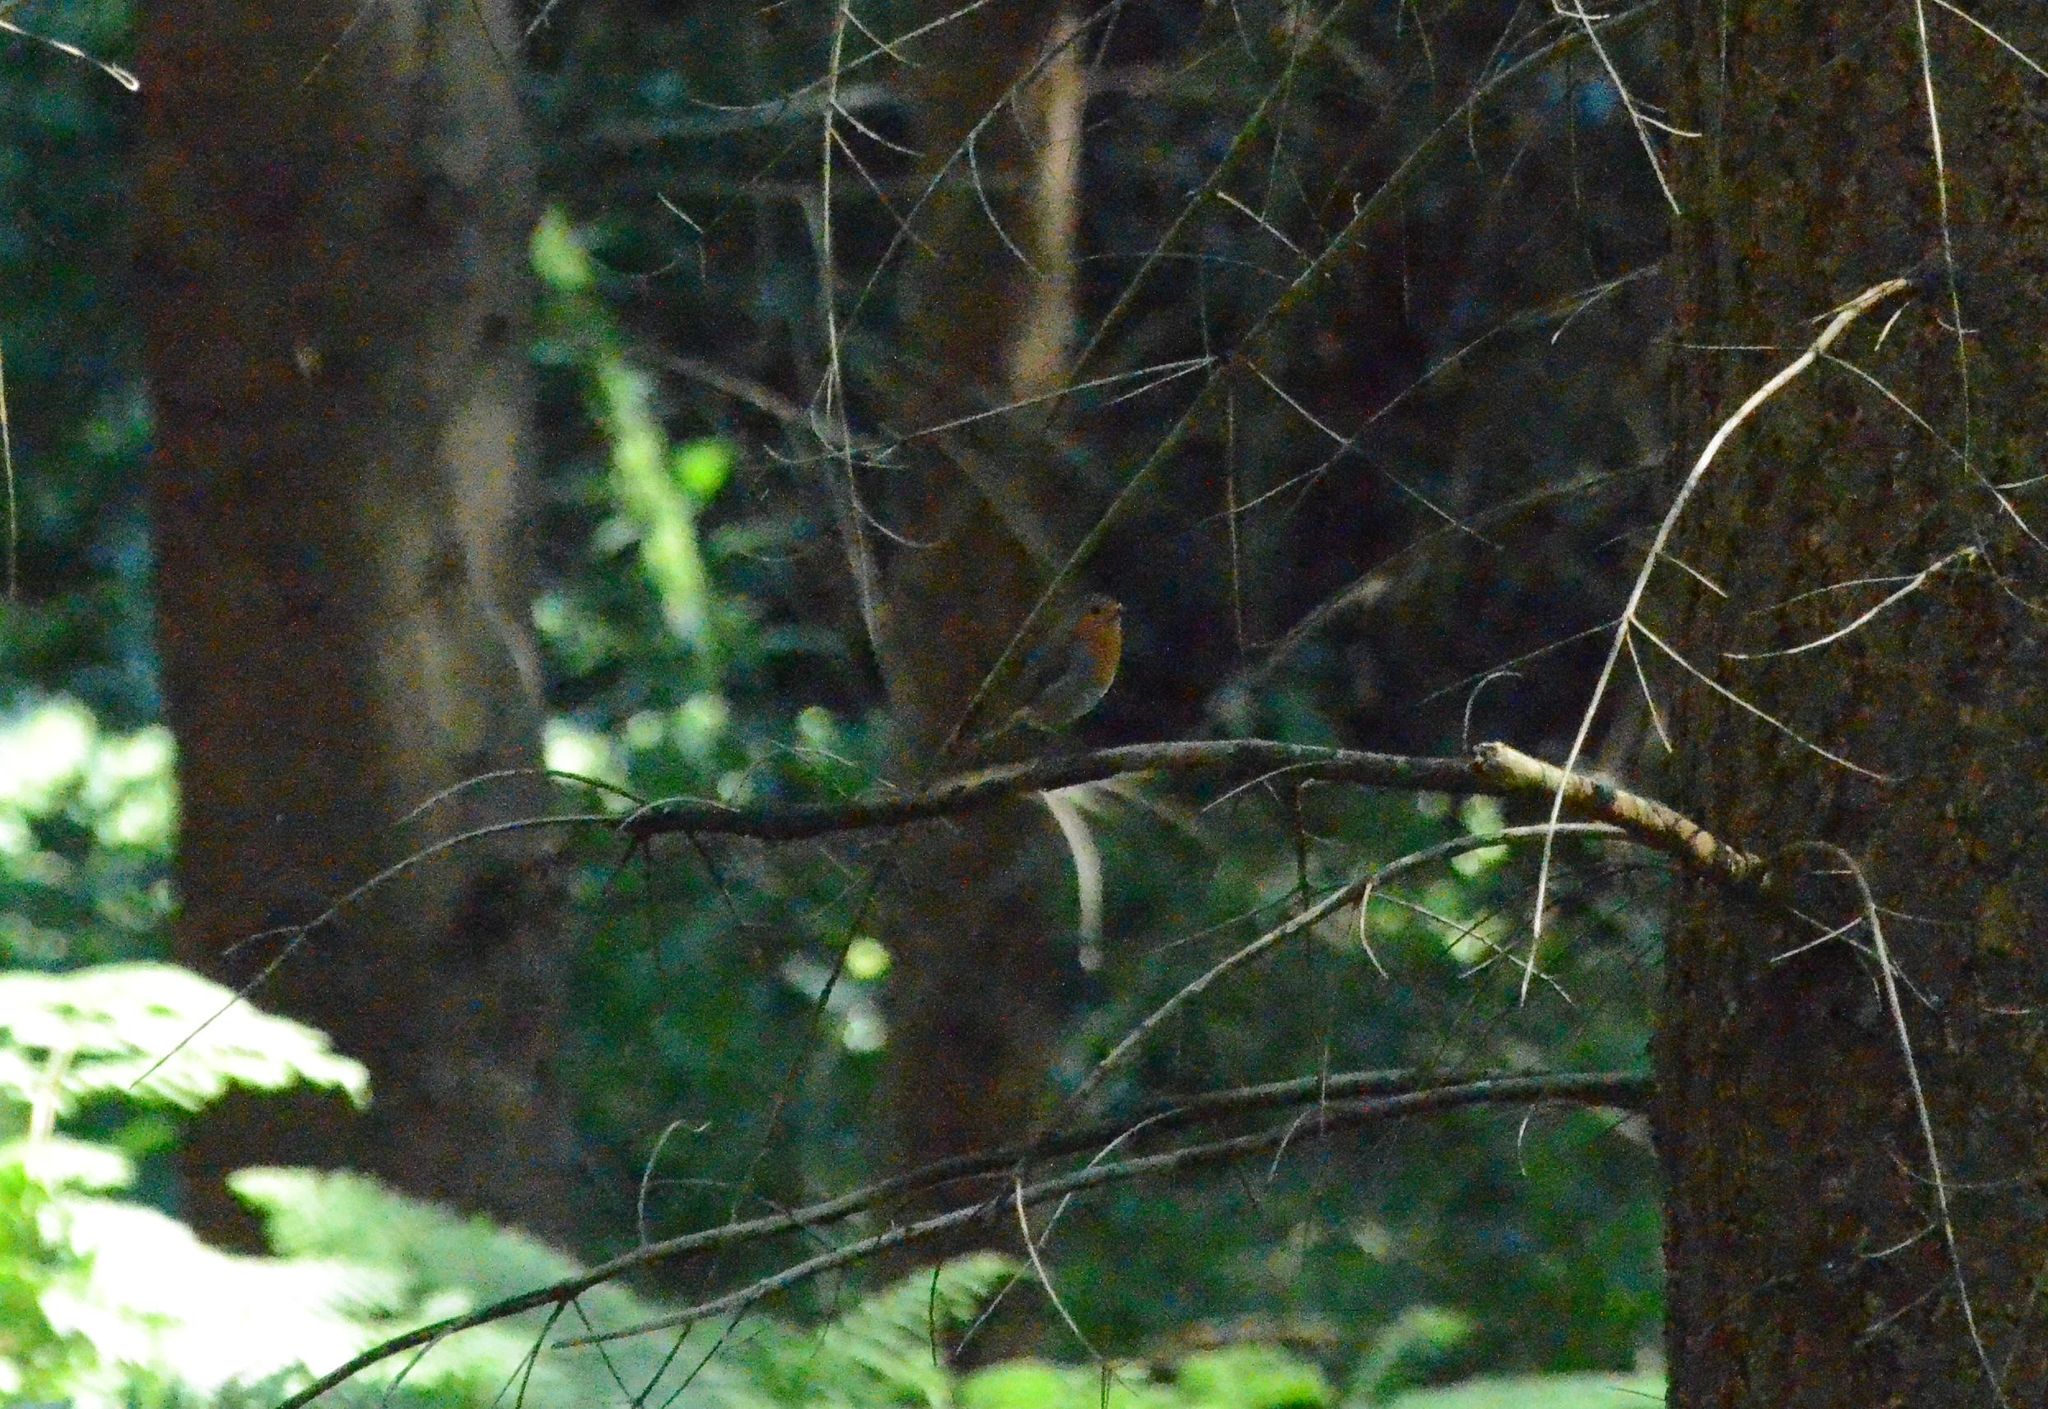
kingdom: Animalia
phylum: Chordata
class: Aves
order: Passeriformes
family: Muscicapidae
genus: Erithacus
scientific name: Erithacus rubecula
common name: European robin
